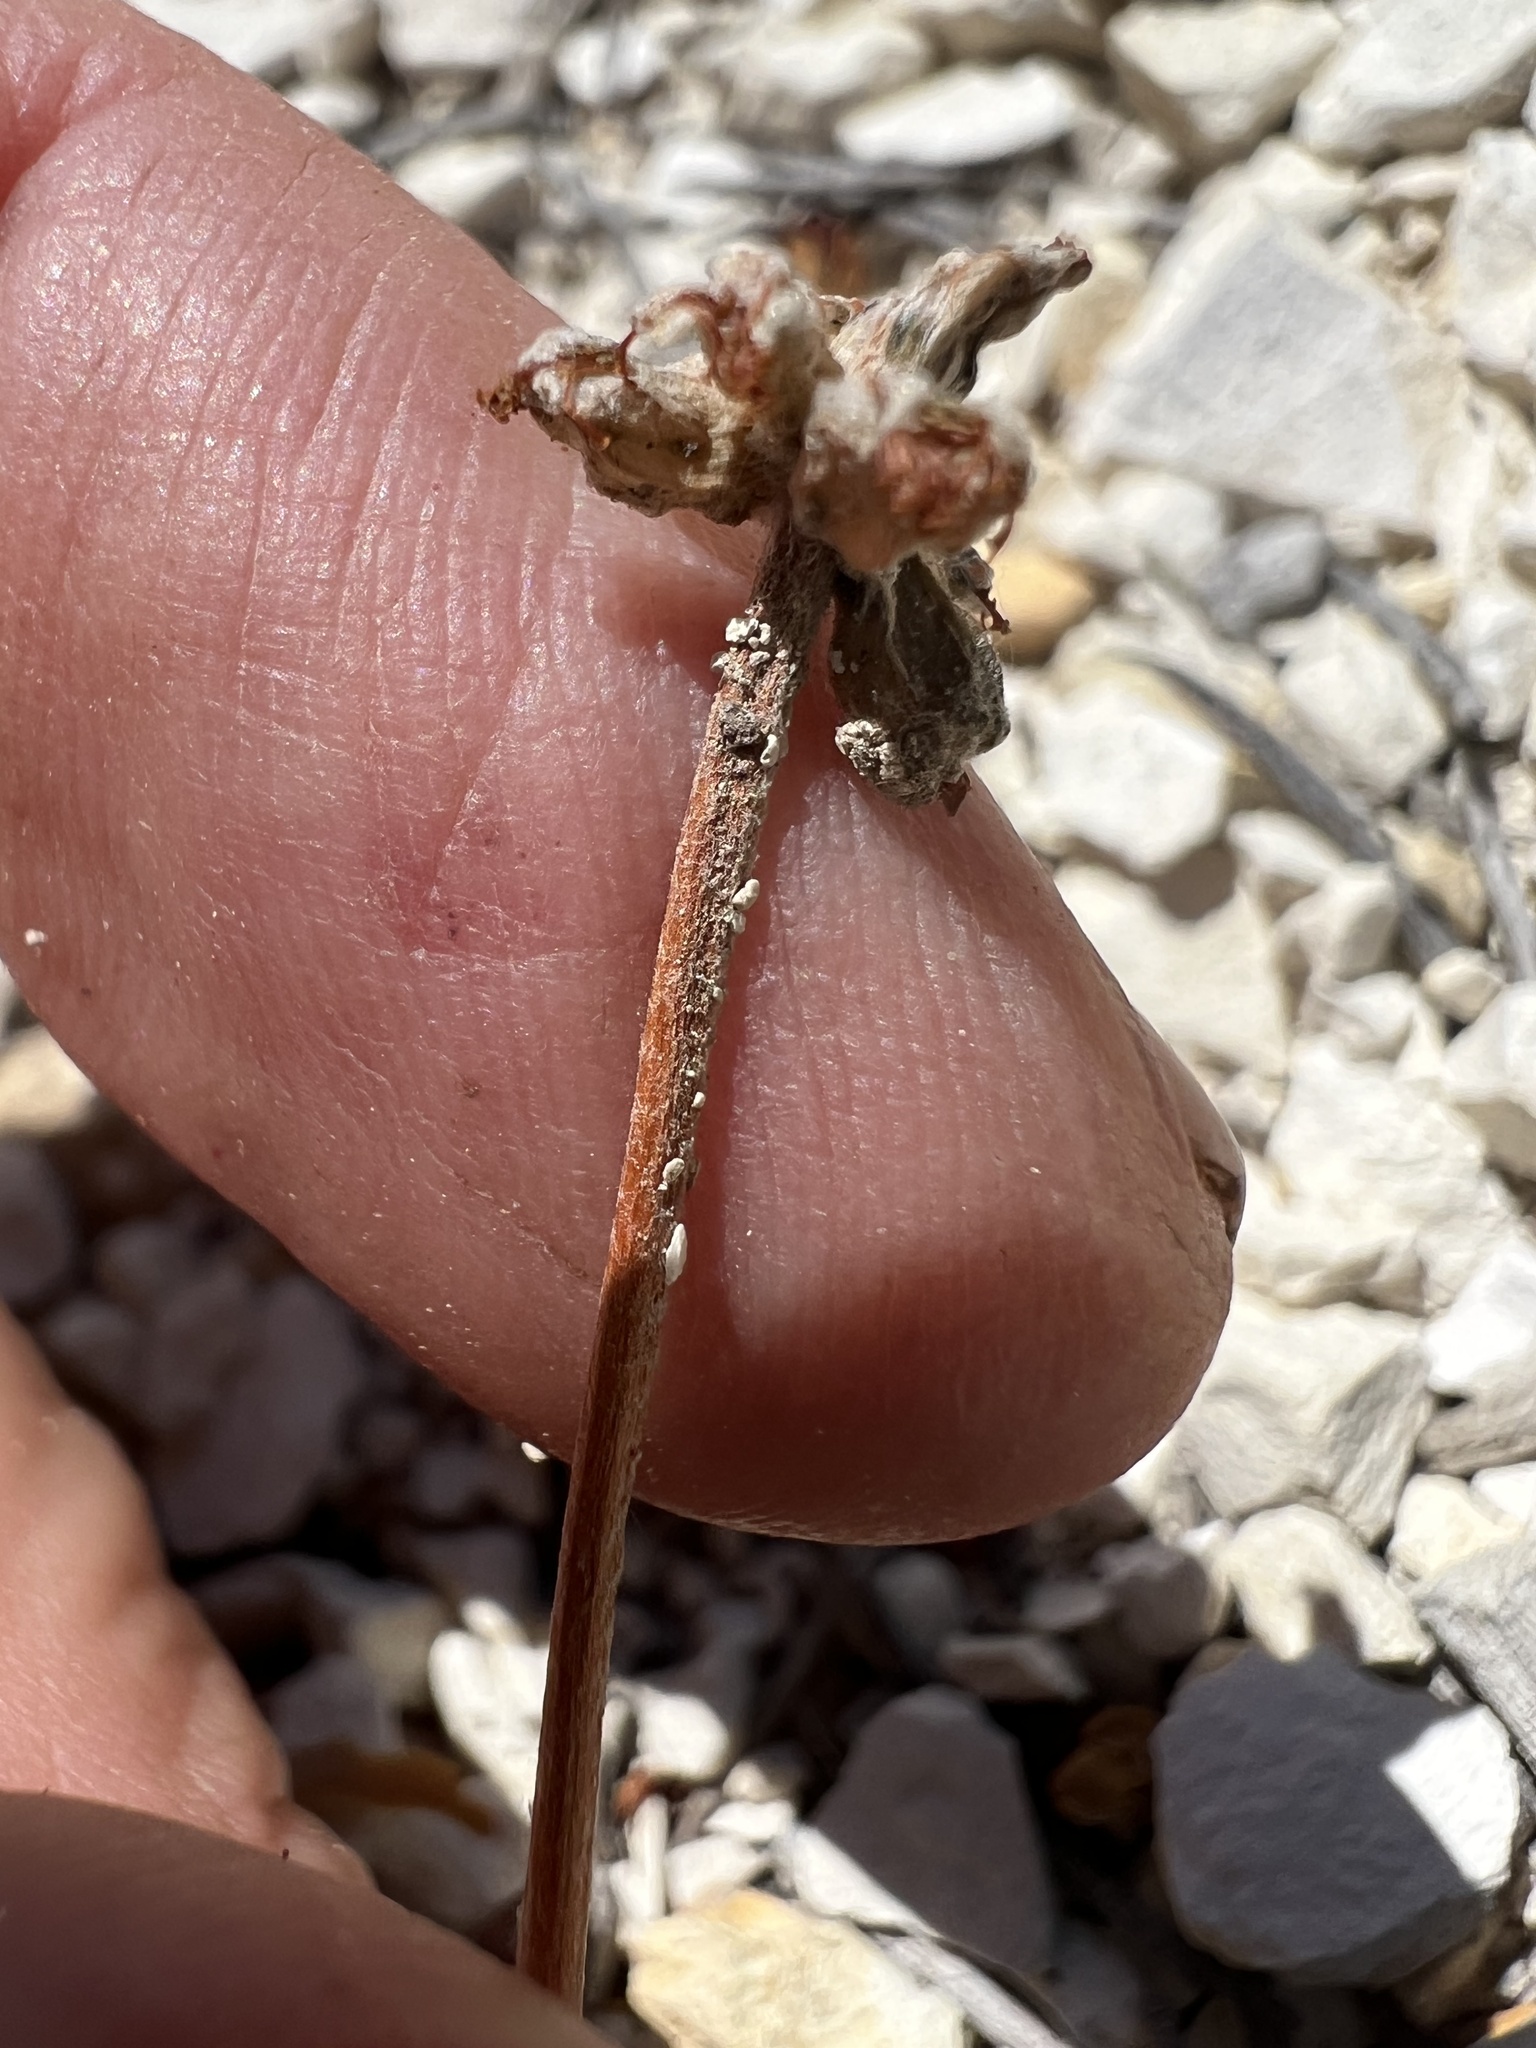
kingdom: Plantae
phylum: Tracheophyta
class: Magnoliopsida
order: Caryophyllales
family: Polygonaceae
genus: Eriogonum
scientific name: Eriogonum alexanderae
